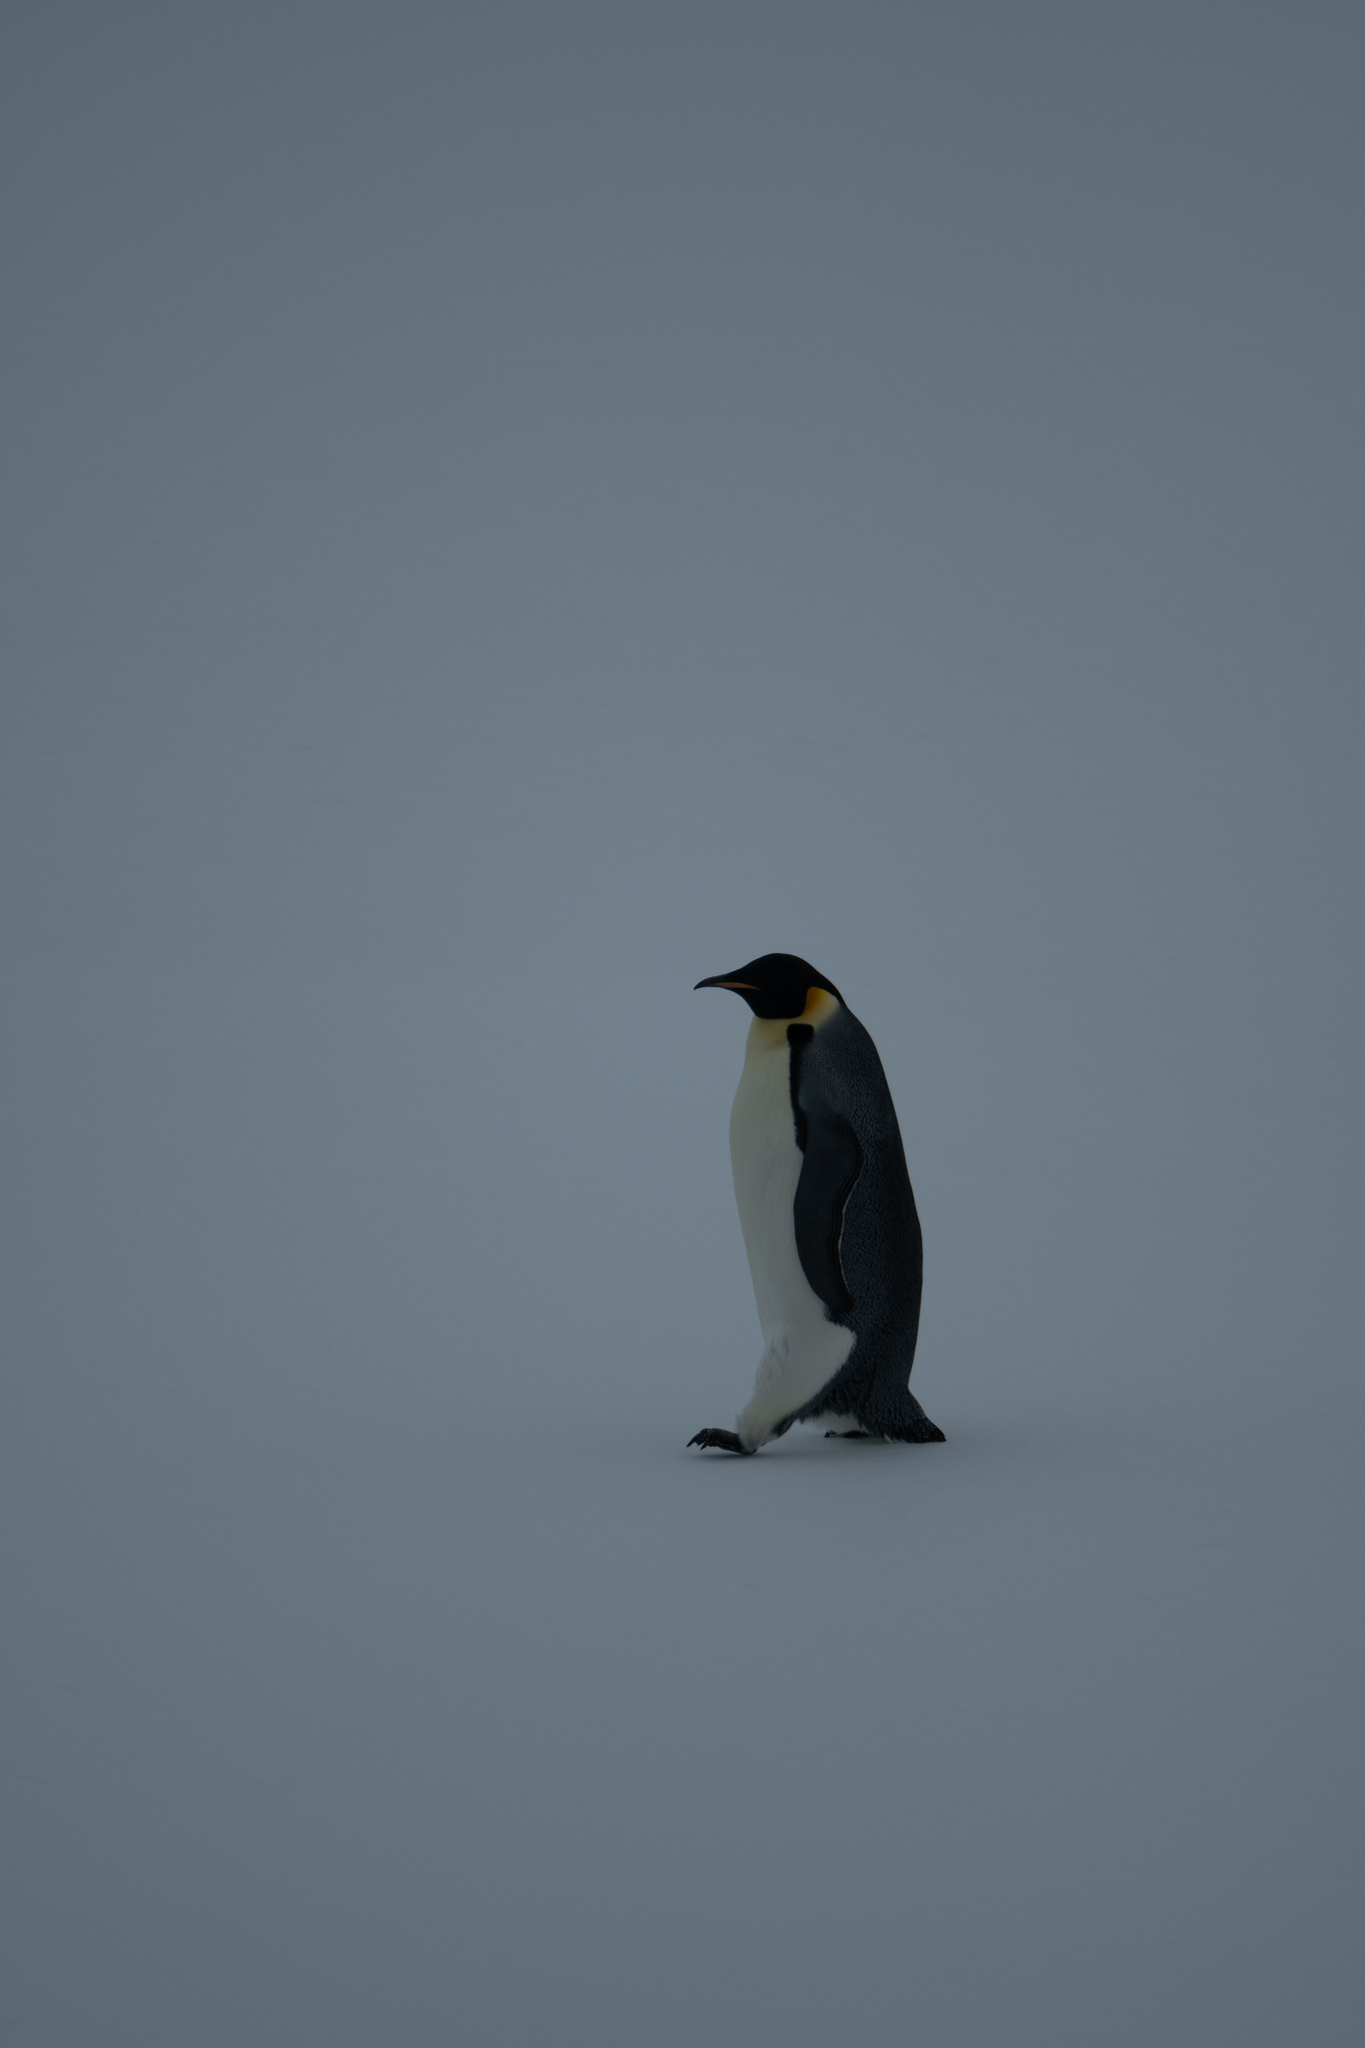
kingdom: Animalia
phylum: Chordata
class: Aves
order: Sphenisciformes
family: Spheniscidae
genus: Aptenodytes
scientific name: Aptenodytes forsteri
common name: Emperor penguin
